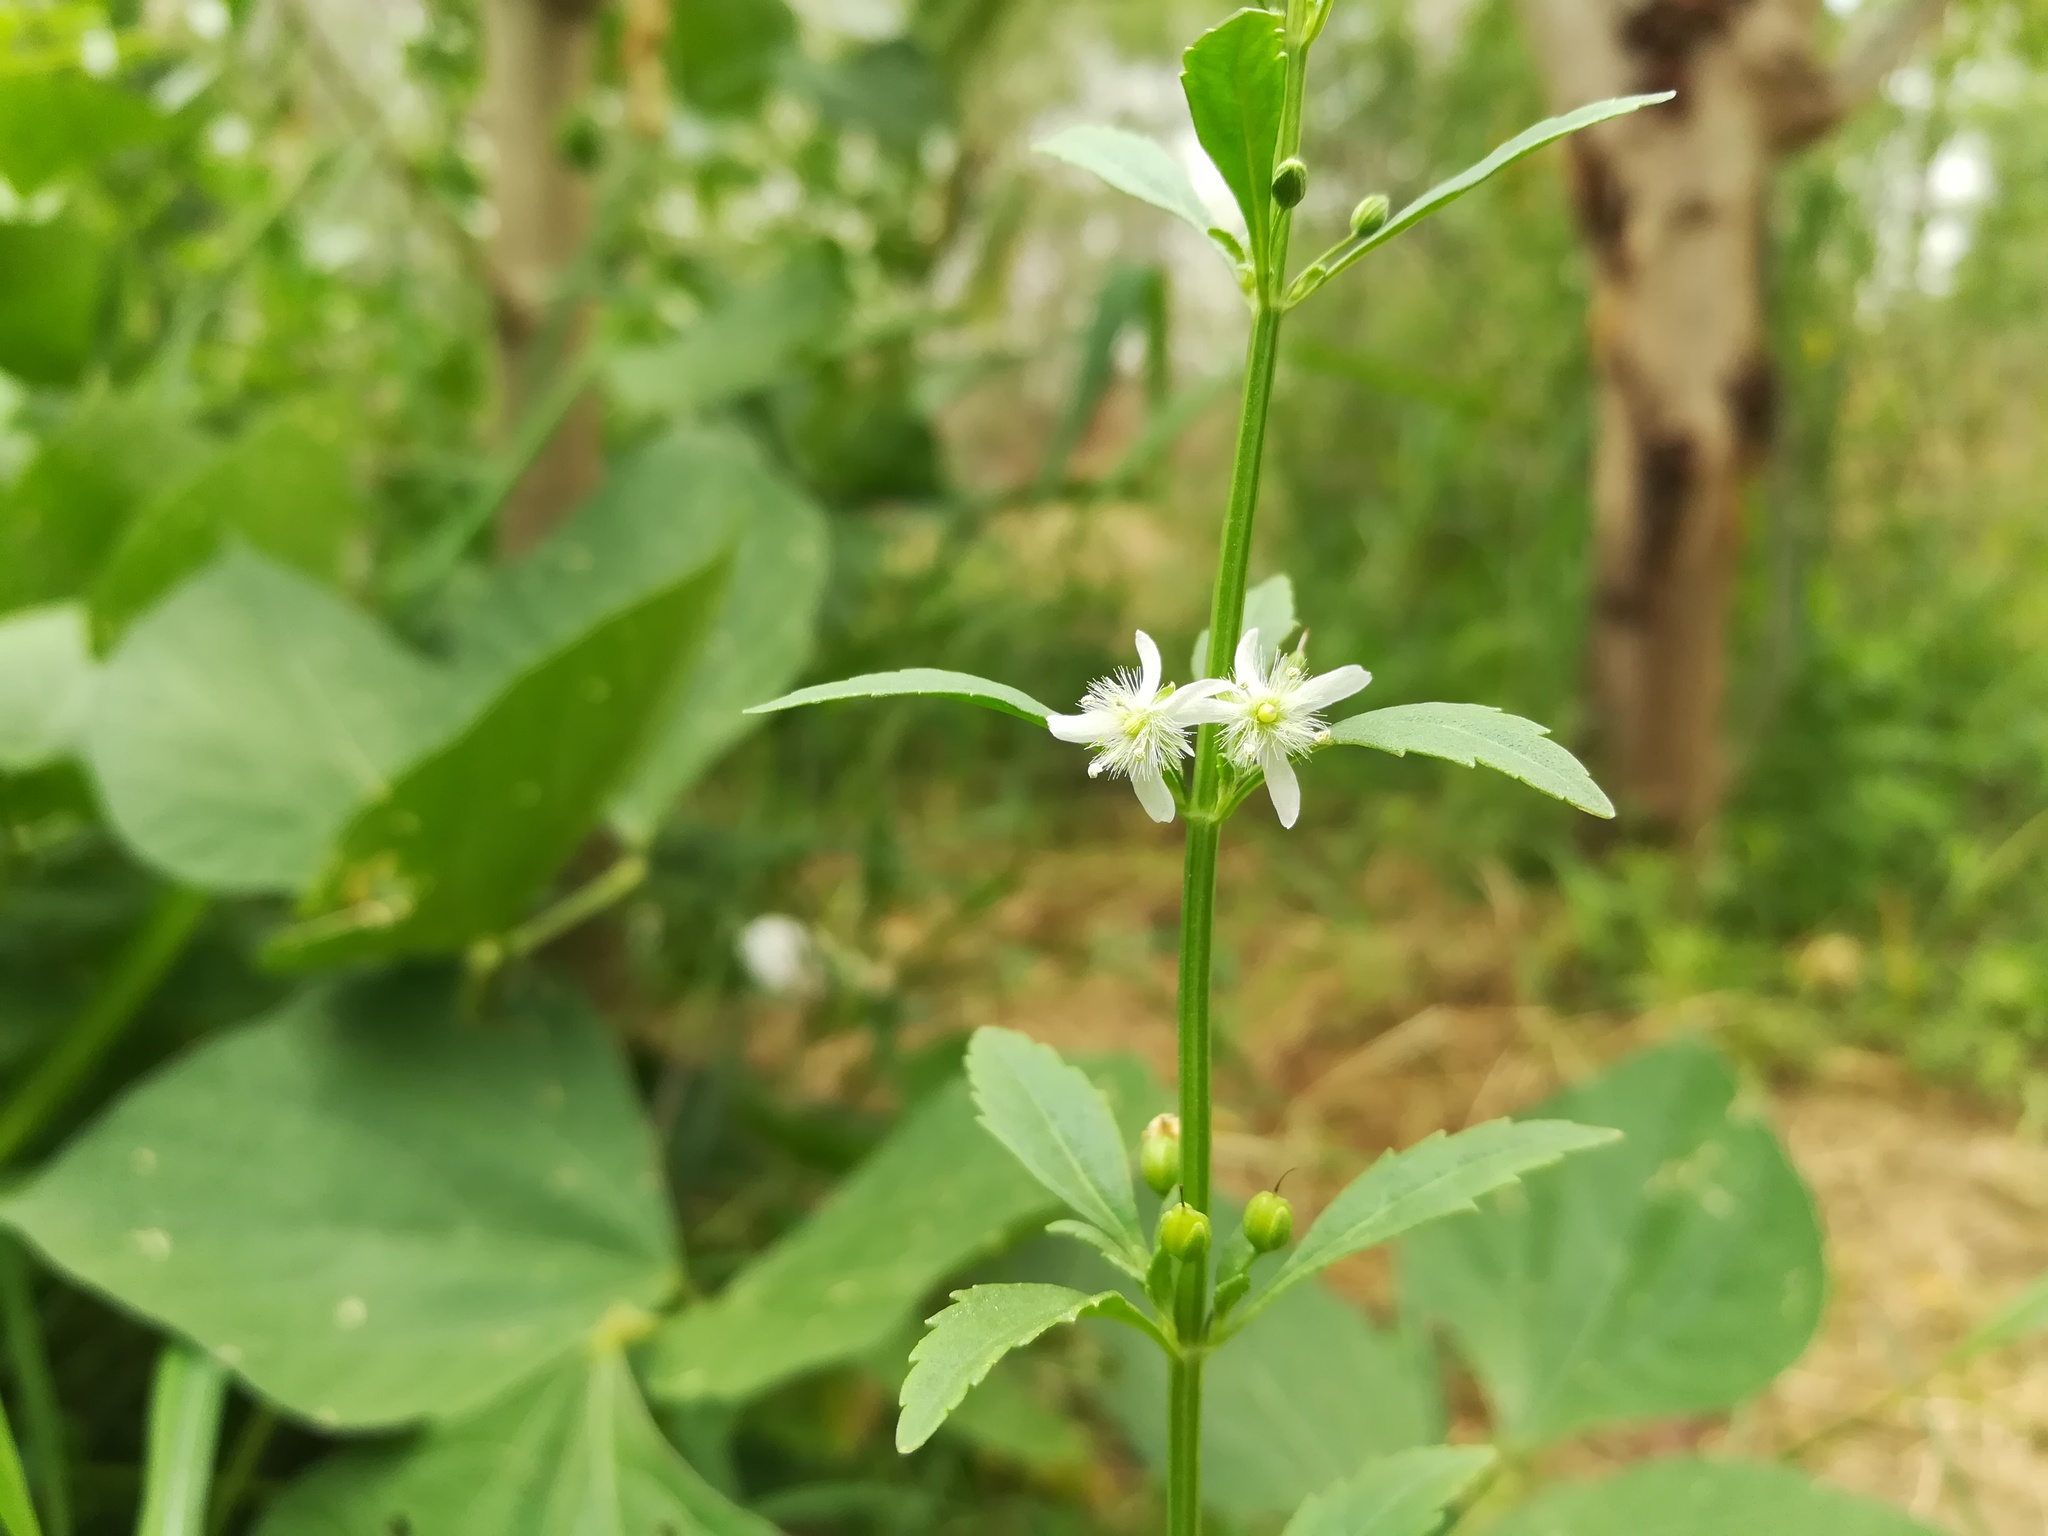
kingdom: Plantae
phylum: Tracheophyta
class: Magnoliopsida
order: Lamiales
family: Plantaginaceae
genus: Scoparia
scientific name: Scoparia dulcis
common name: Scoparia-weed
